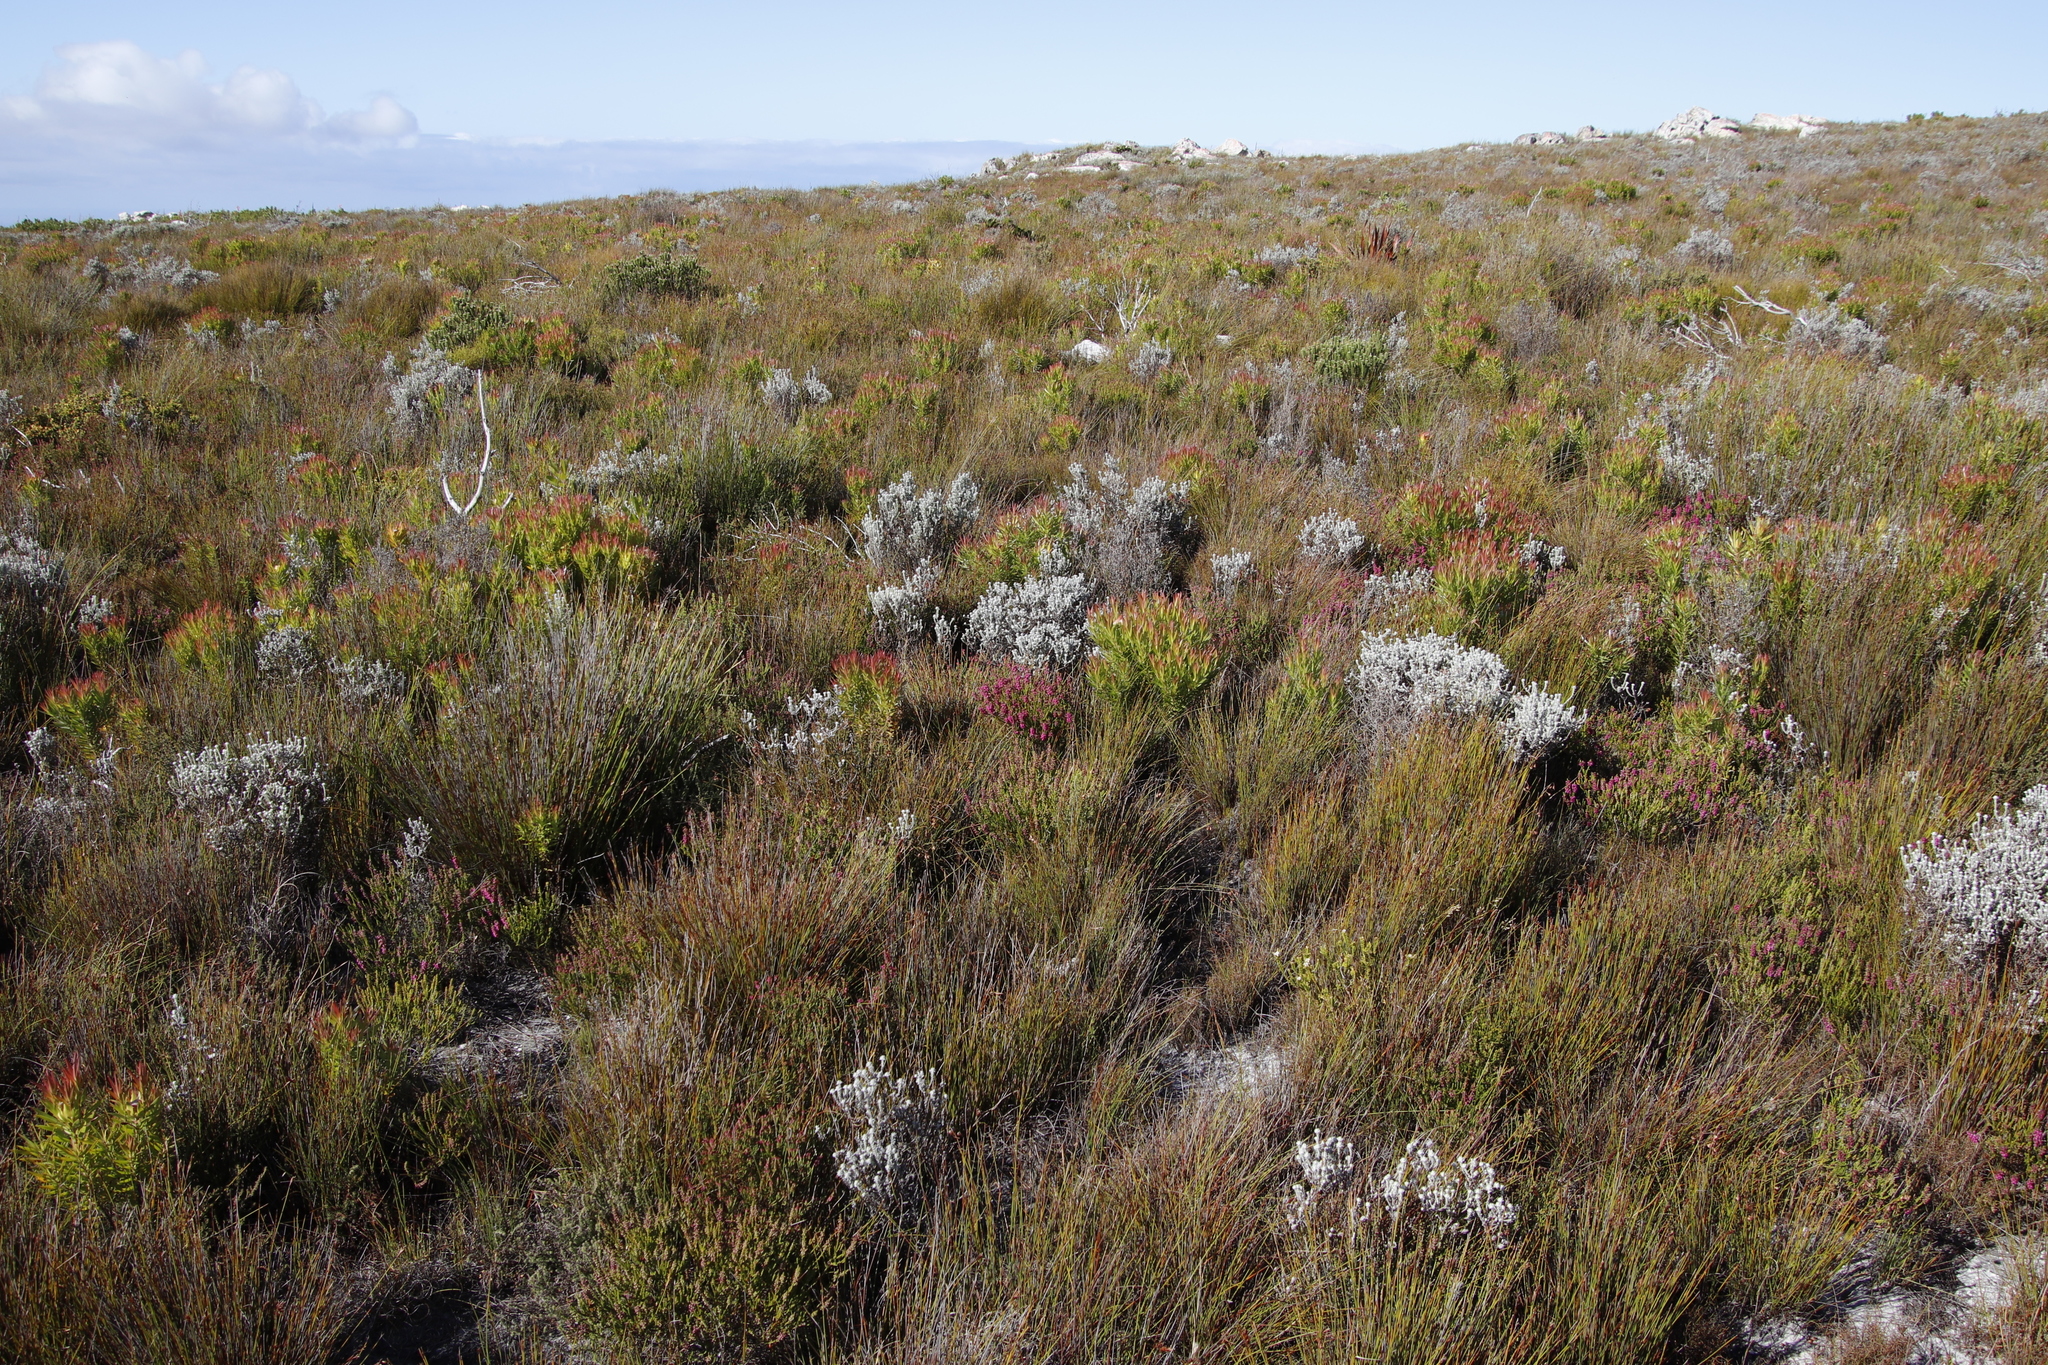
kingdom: Plantae
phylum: Tracheophyta
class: Magnoliopsida
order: Ericales
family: Ericaceae
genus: Erica
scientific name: Erica pulchella
